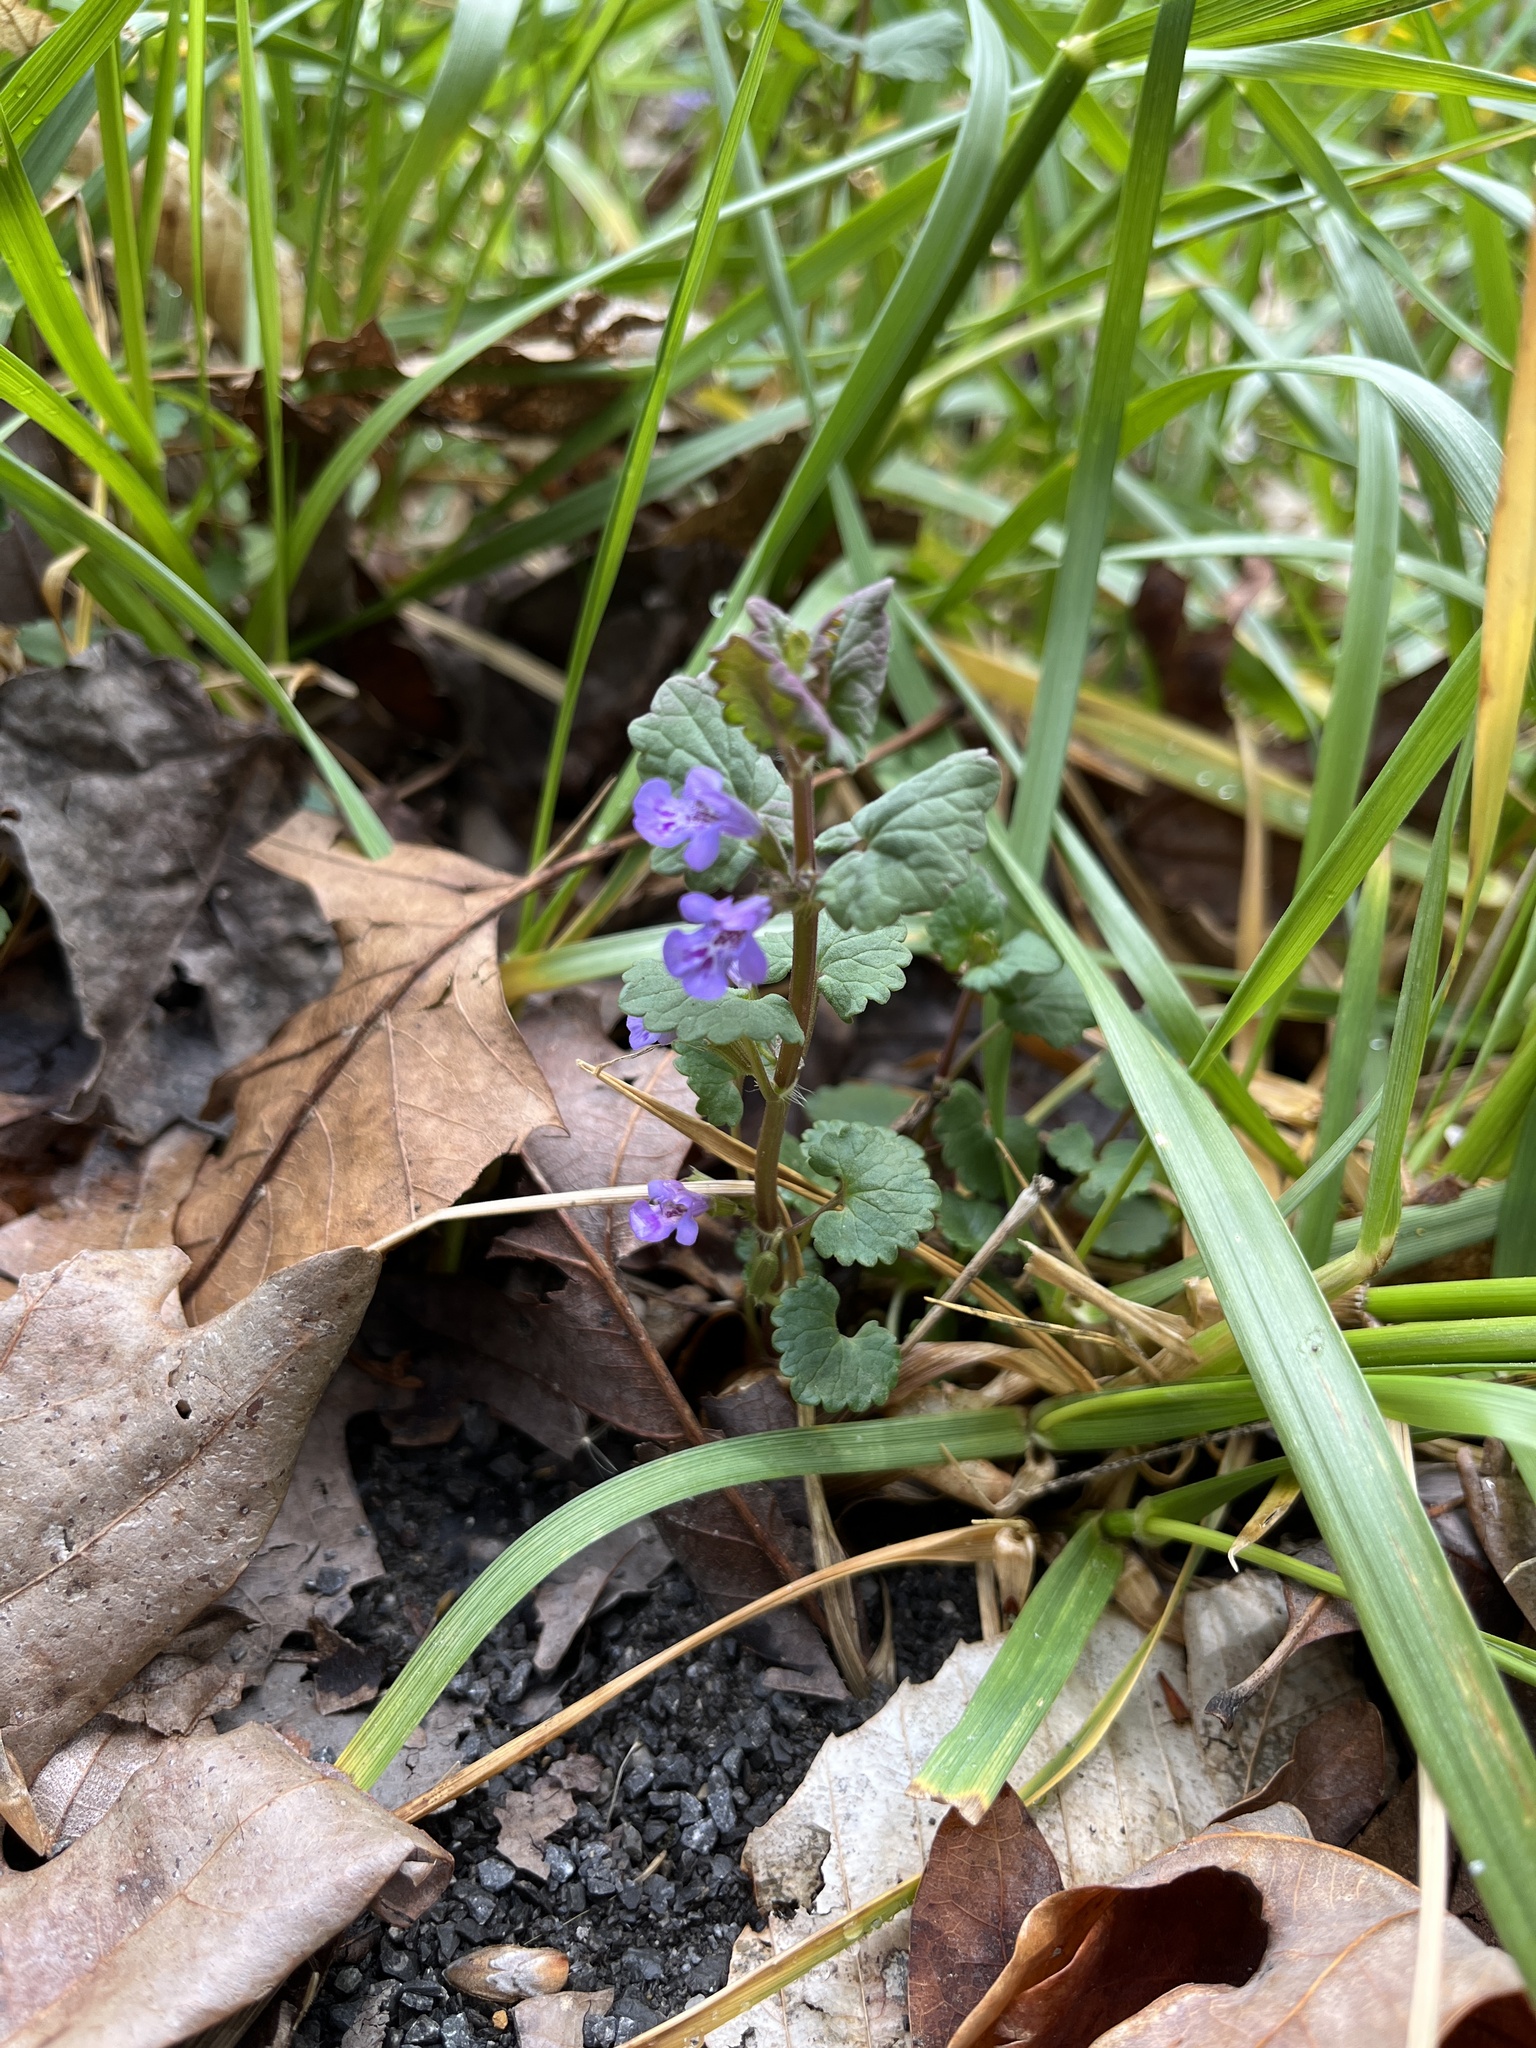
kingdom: Plantae
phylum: Tracheophyta
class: Magnoliopsida
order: Lamiales
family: Lamiaceae
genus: Glechoma
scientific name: Glechoma hederacea
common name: Ground ivy
